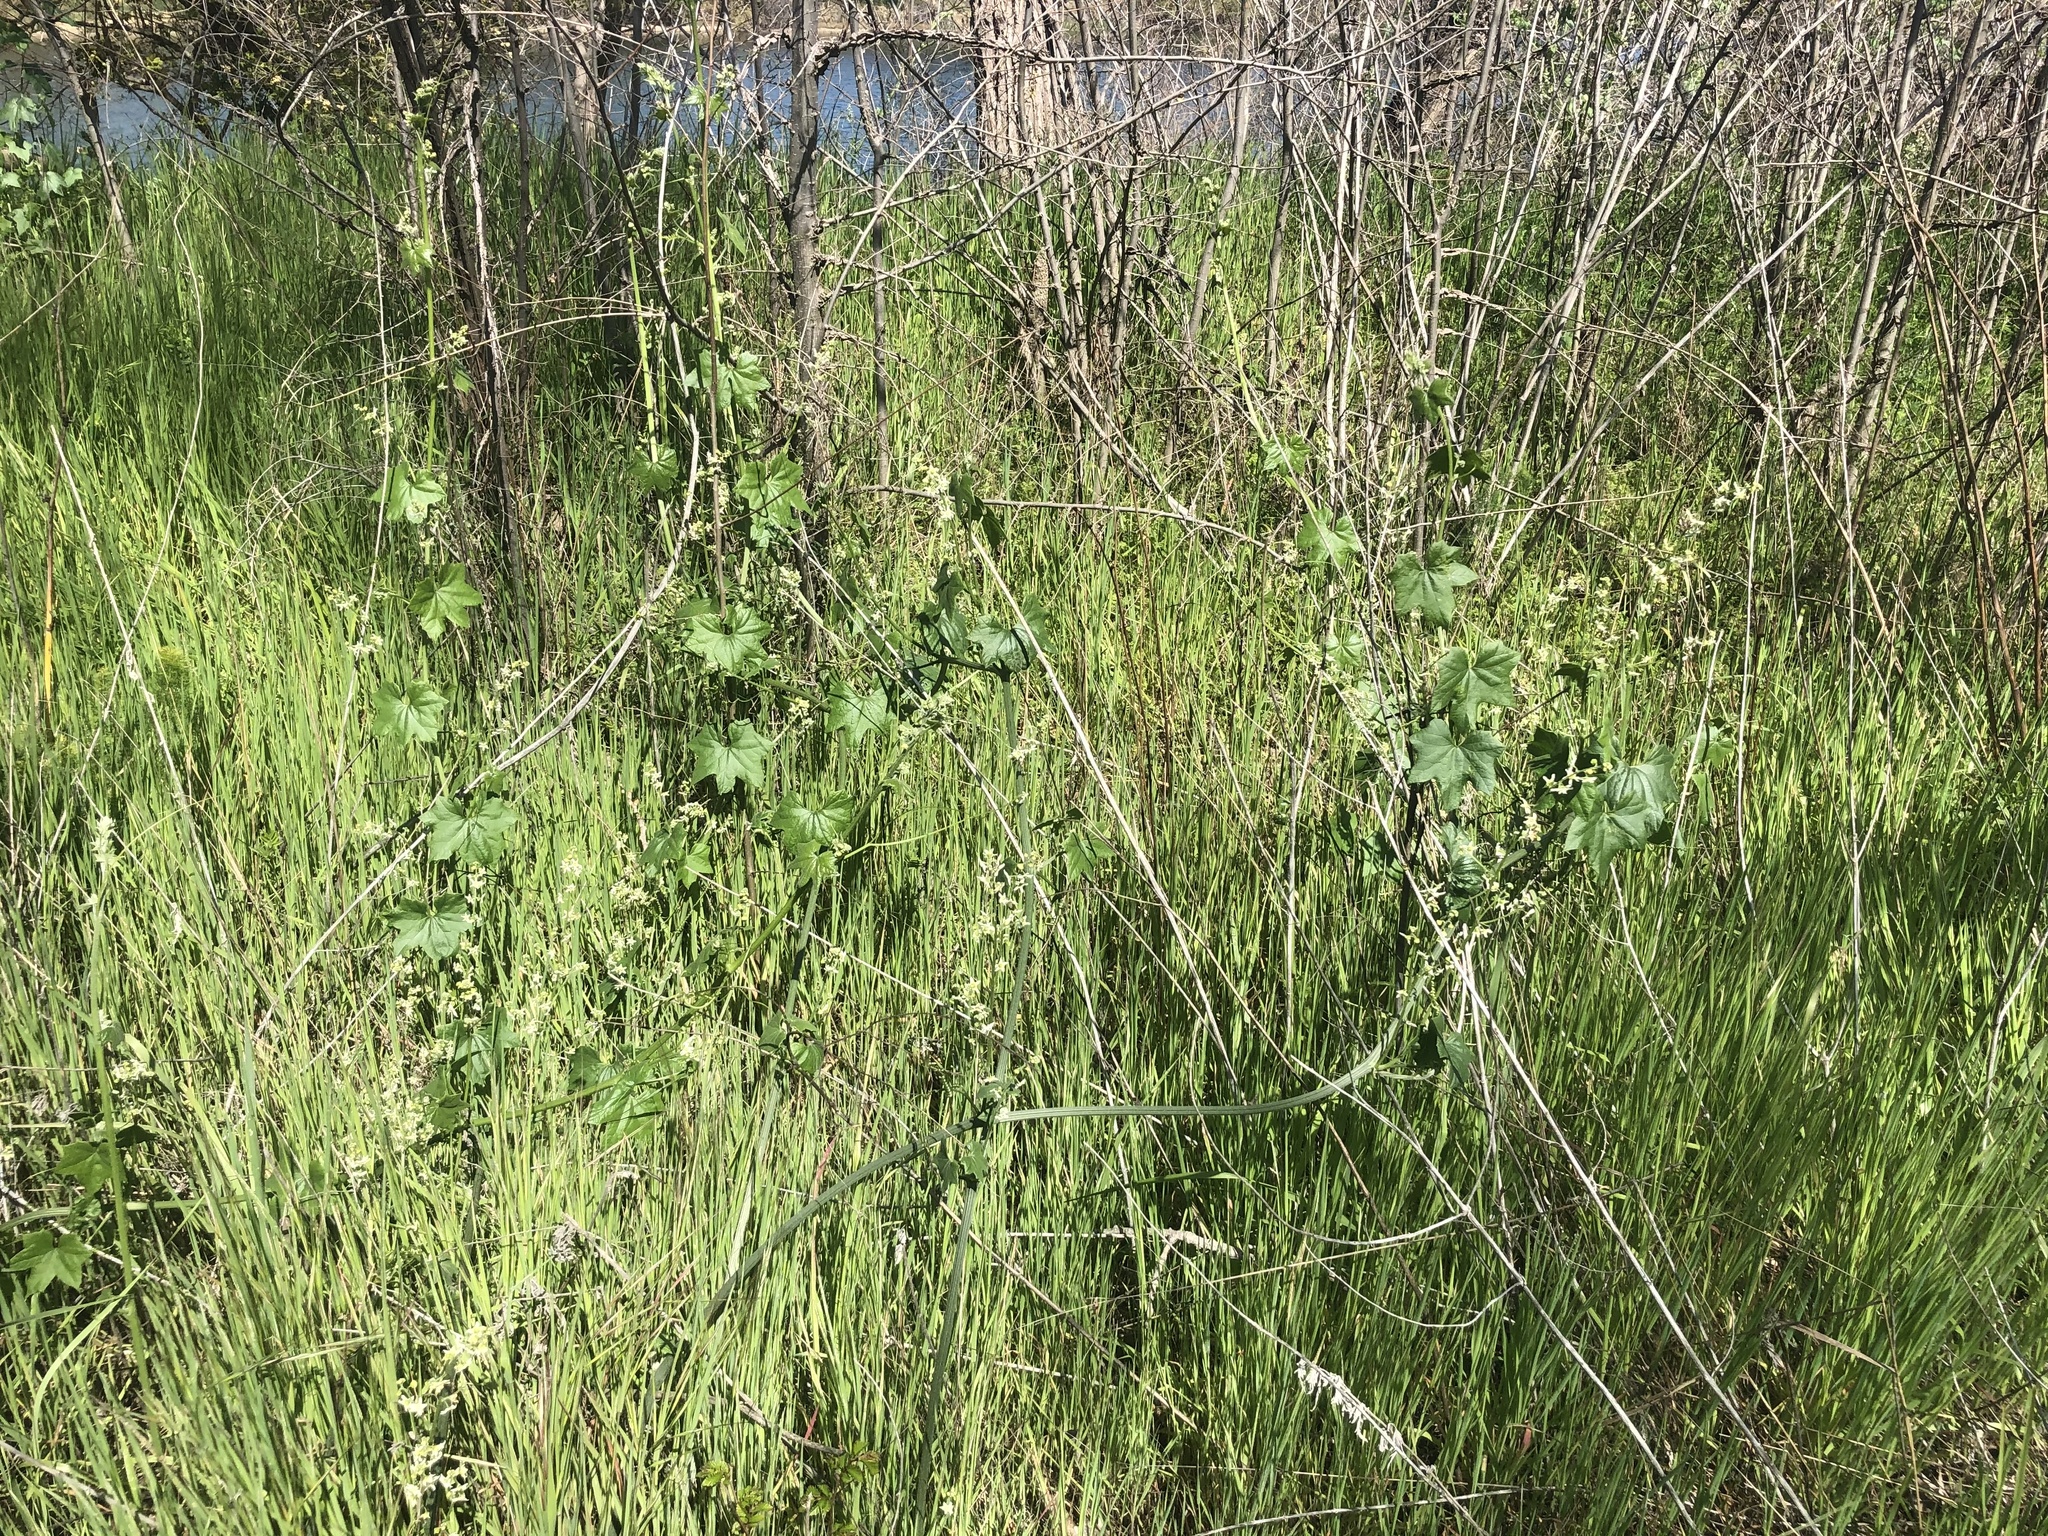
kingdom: Plantae
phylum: Tracheophyta
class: Magnoliopsida
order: Cucurbitales
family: Cucurbitaceae
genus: Marah
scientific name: Marah fabacea
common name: California manroot
